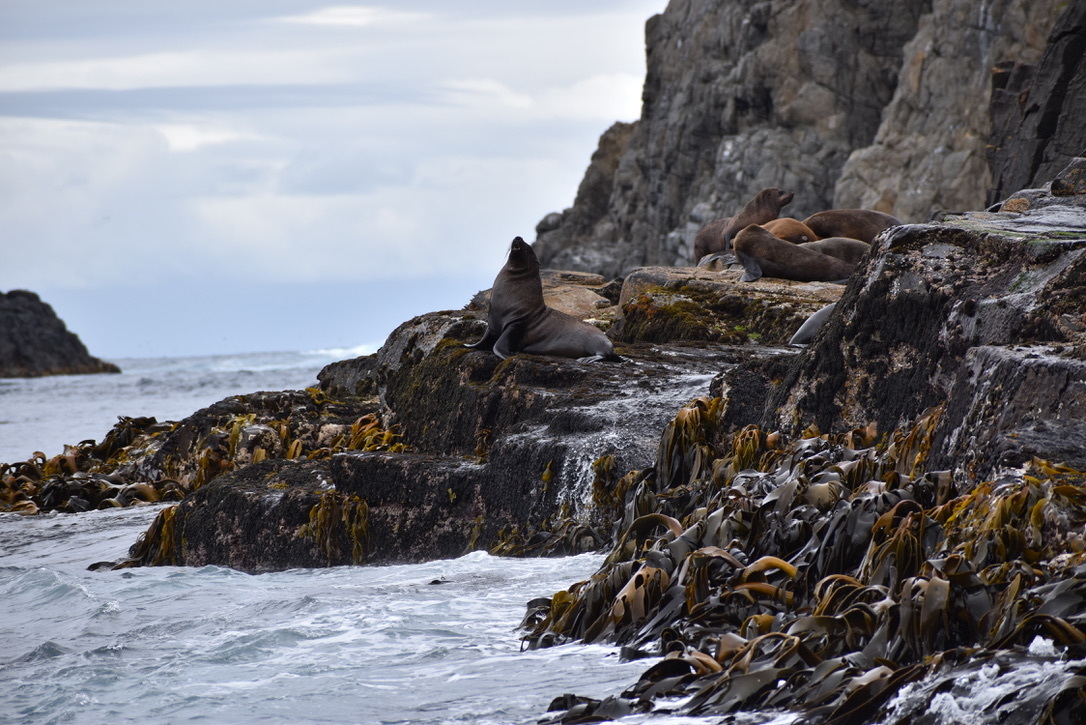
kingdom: Chromista
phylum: Ochrophyta
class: Phaeophyceae
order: Fucales
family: Durvillaeaceae
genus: Durvillaea
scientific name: Durvillaea
